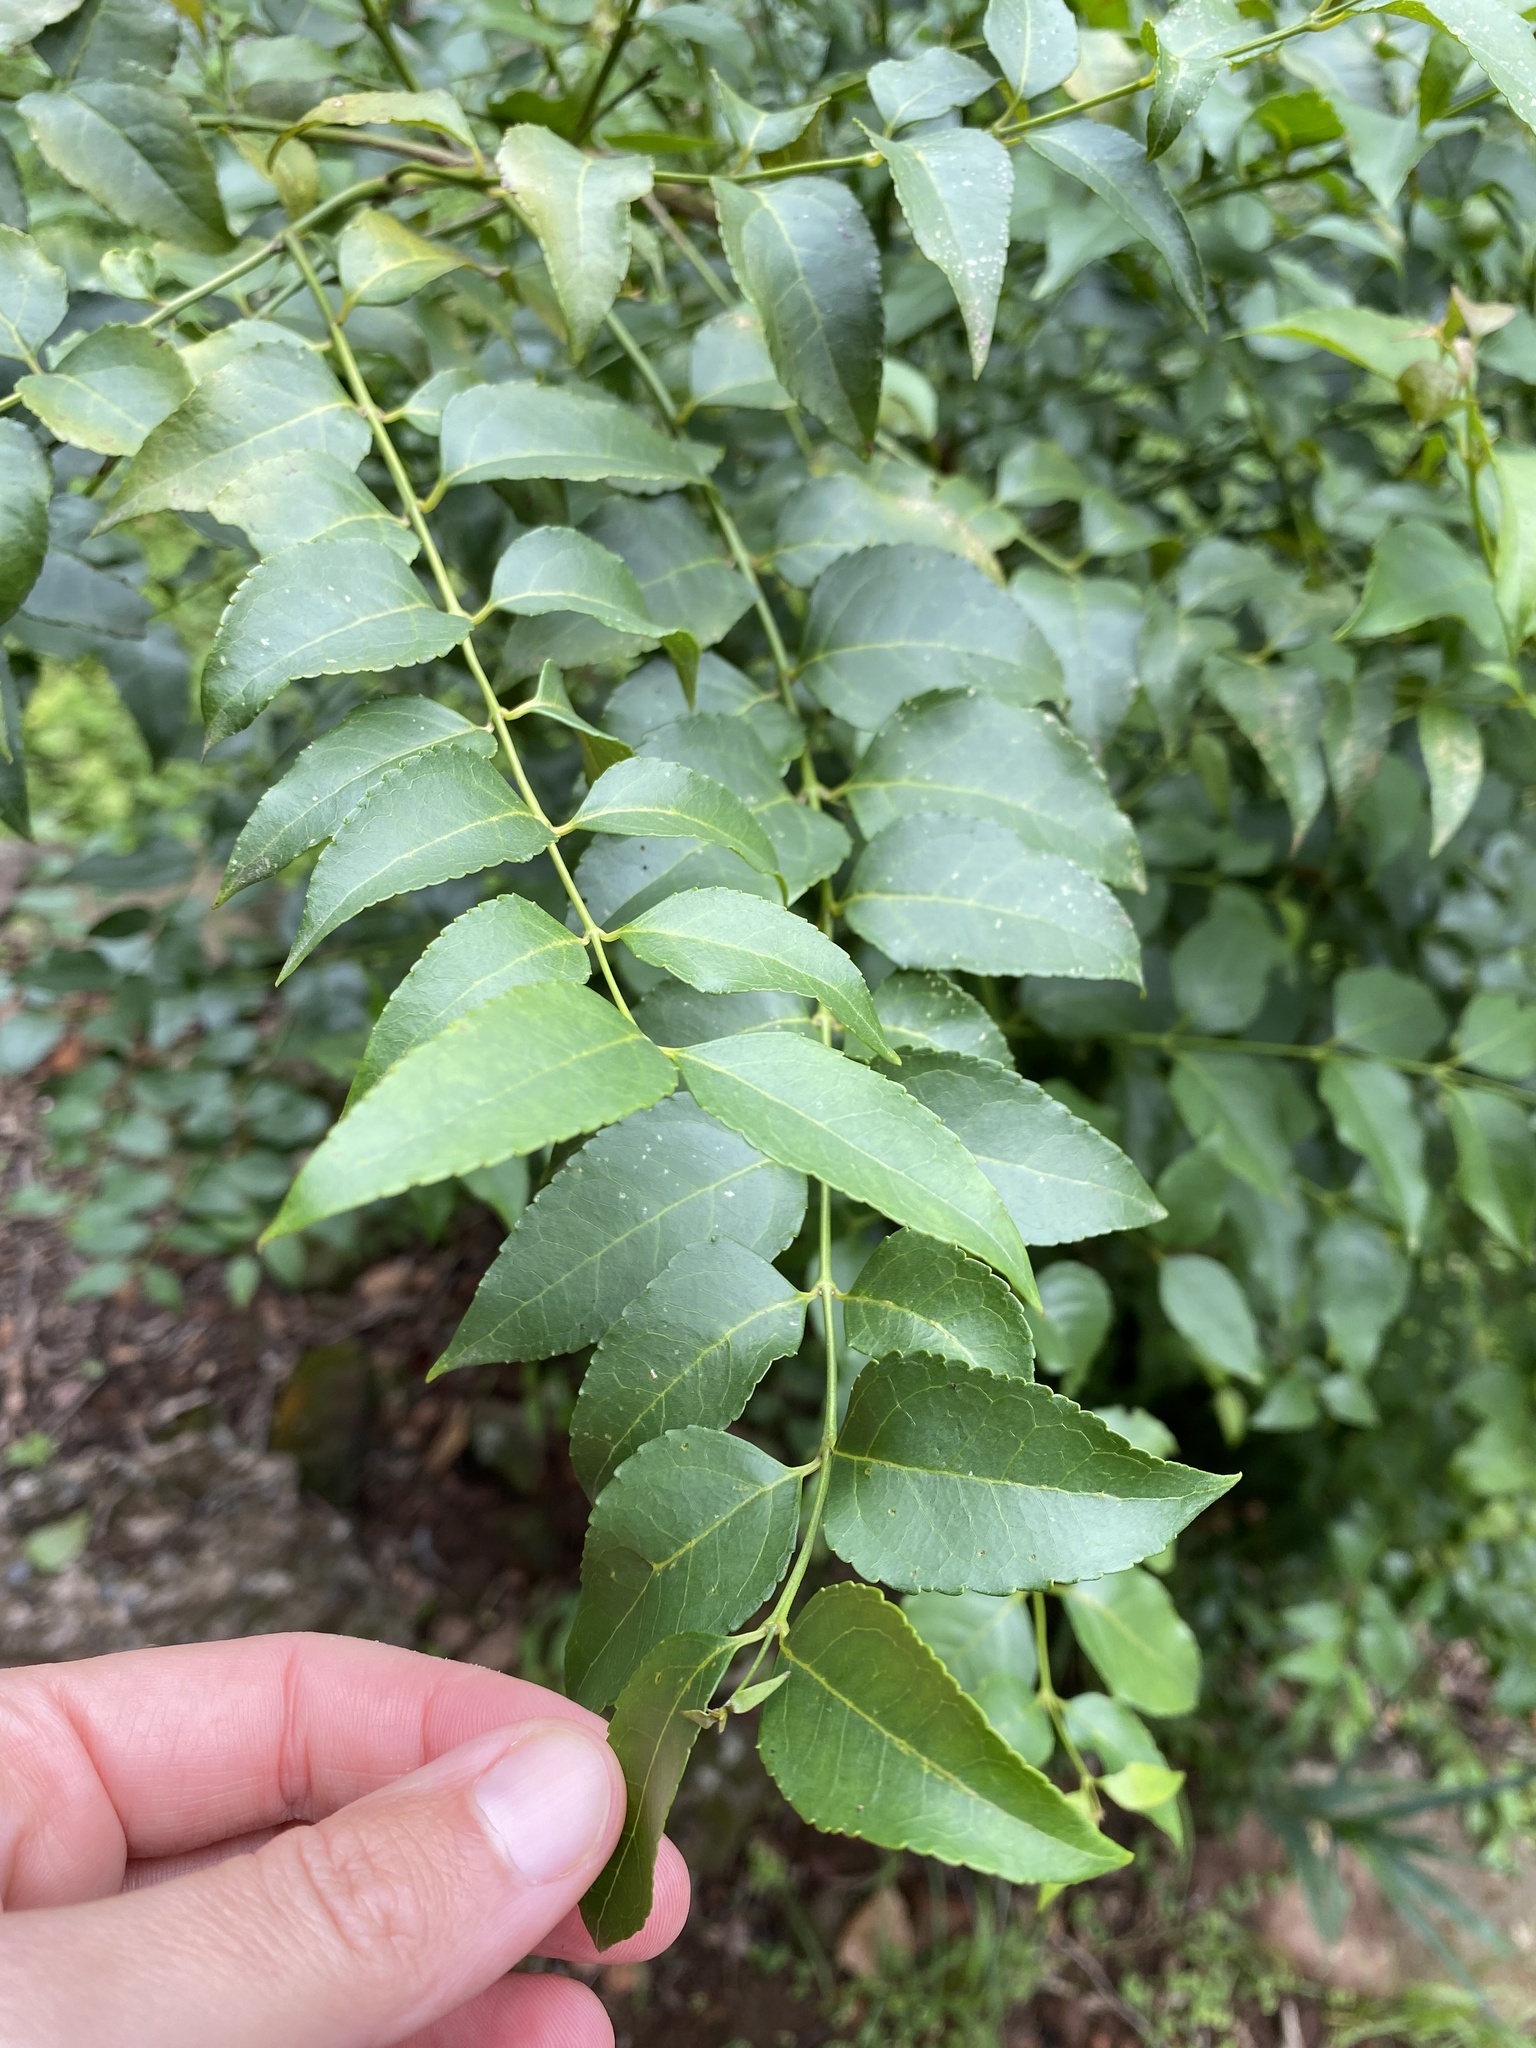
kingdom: Plantae
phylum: Tracheophyta
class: Magnoliopsida
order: Lamiales
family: Stilbaceae
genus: Halleria
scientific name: Halleria lucida
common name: Tree fuschia
